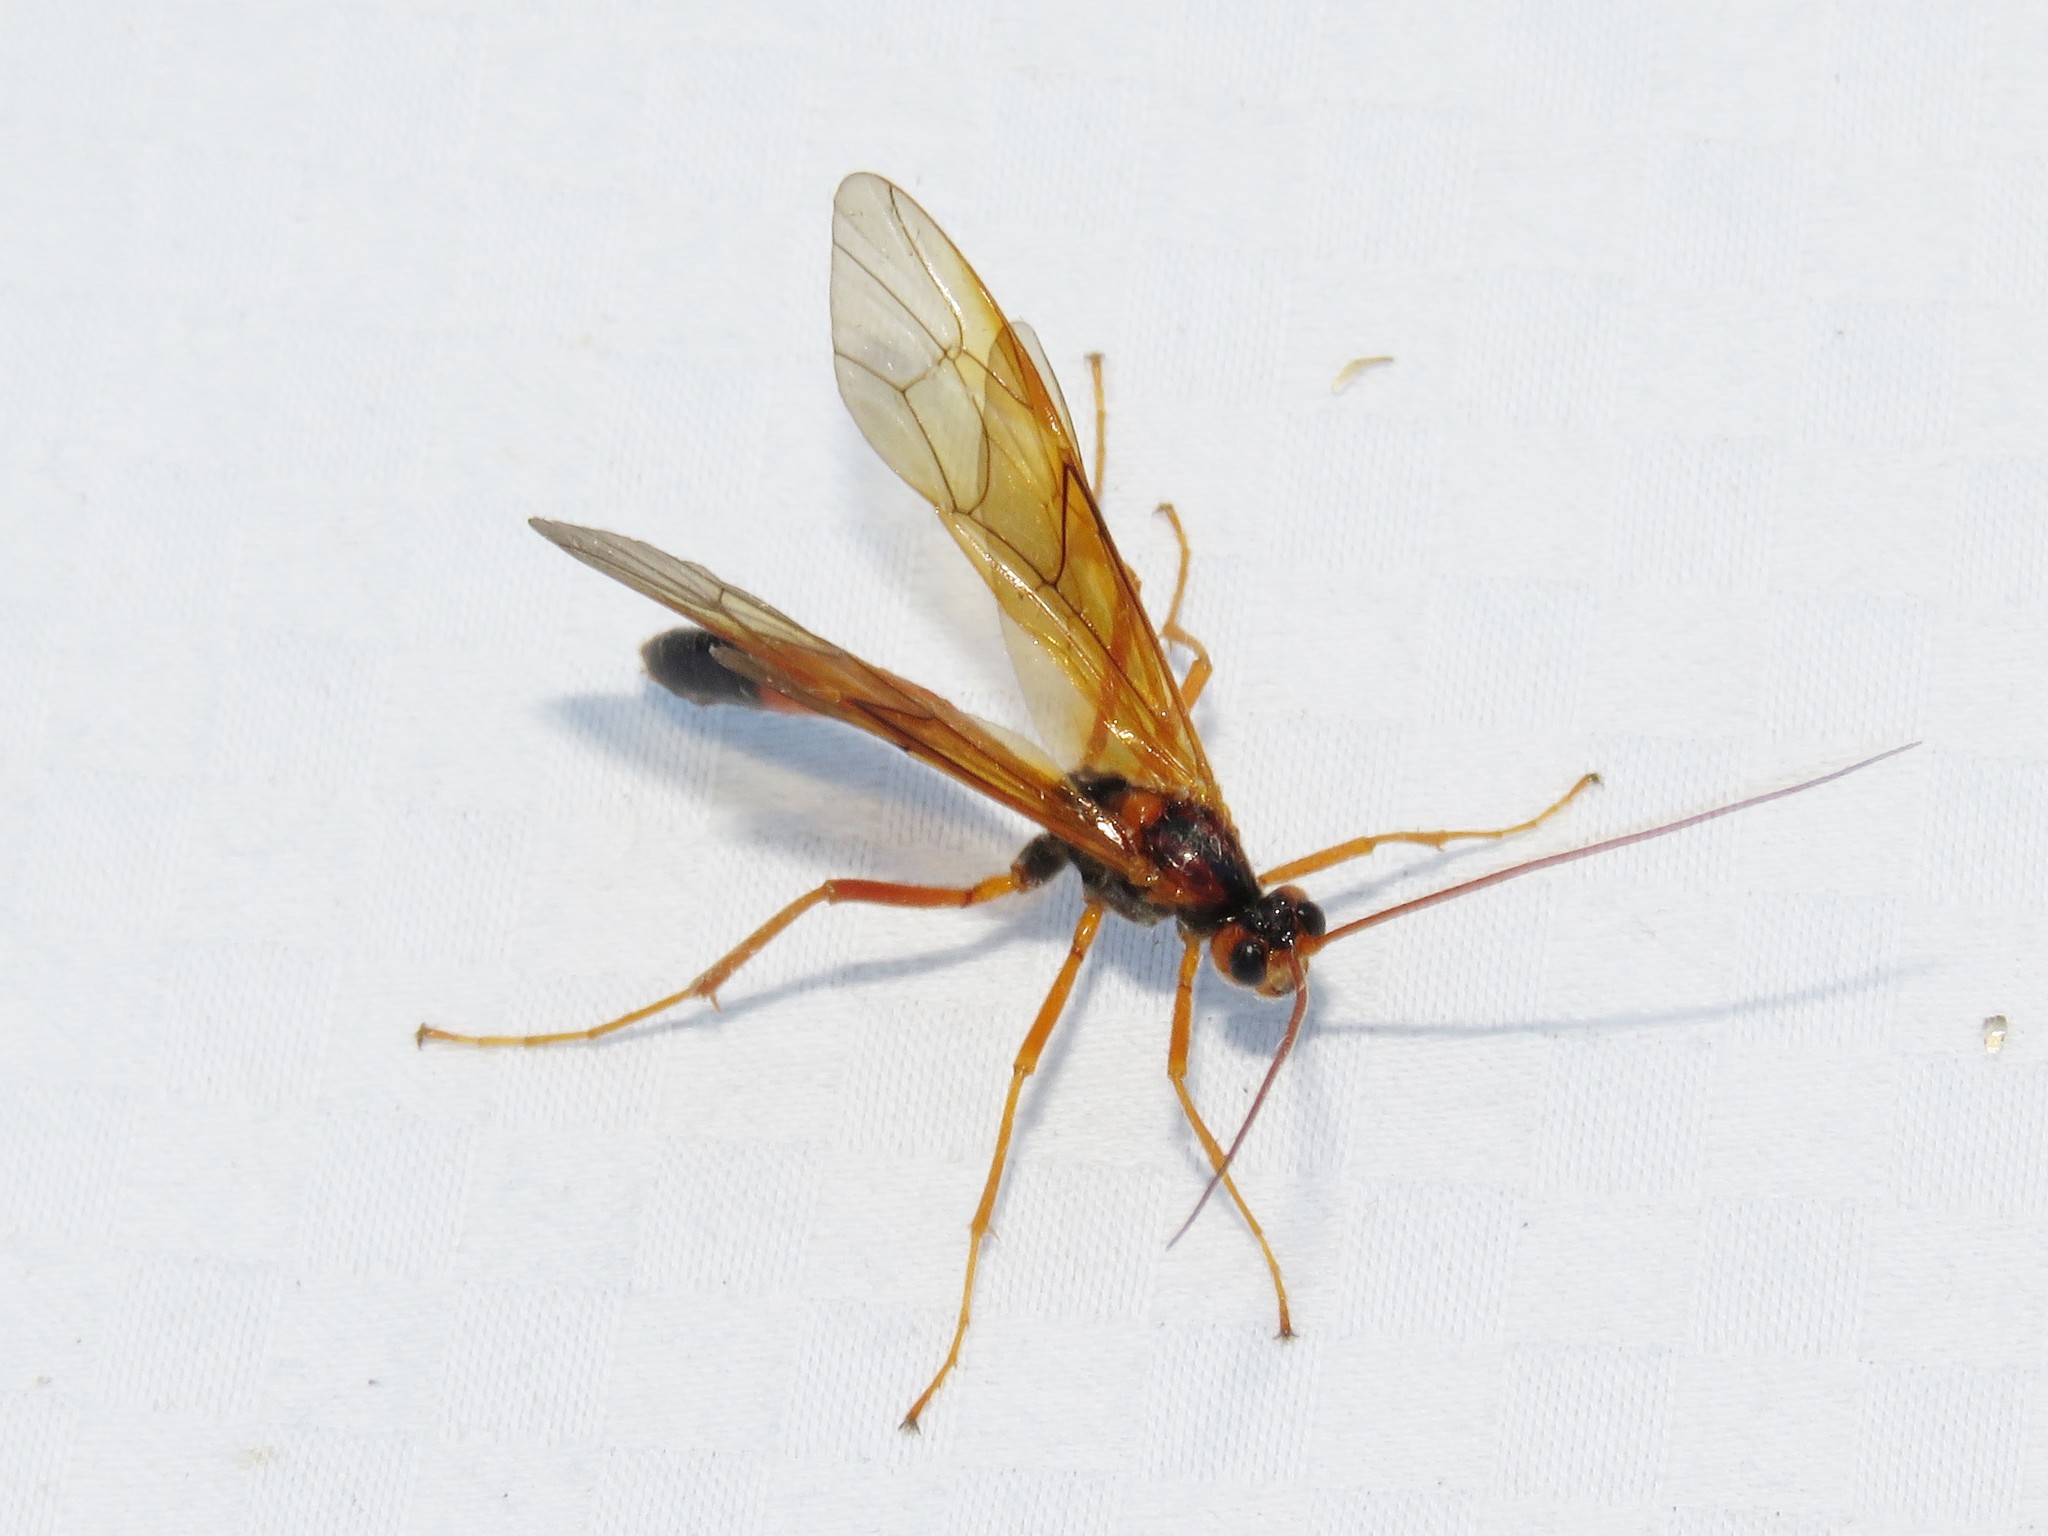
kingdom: Animalia
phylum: Arthropoda
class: Insecta
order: Hymenoptera
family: Ichneumonidae
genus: Opheltes
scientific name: Opheltes glaucopterus
